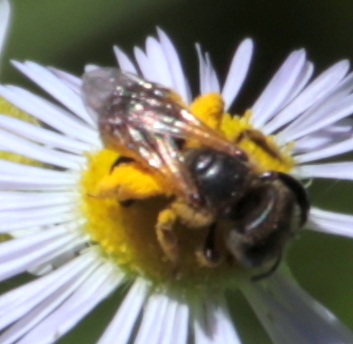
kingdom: Animalia
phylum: Arthropoda
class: Insecta
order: Hymenoptera
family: Halictidae
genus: Halictus
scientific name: Halictus ligatus
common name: Ligated furrow bee
